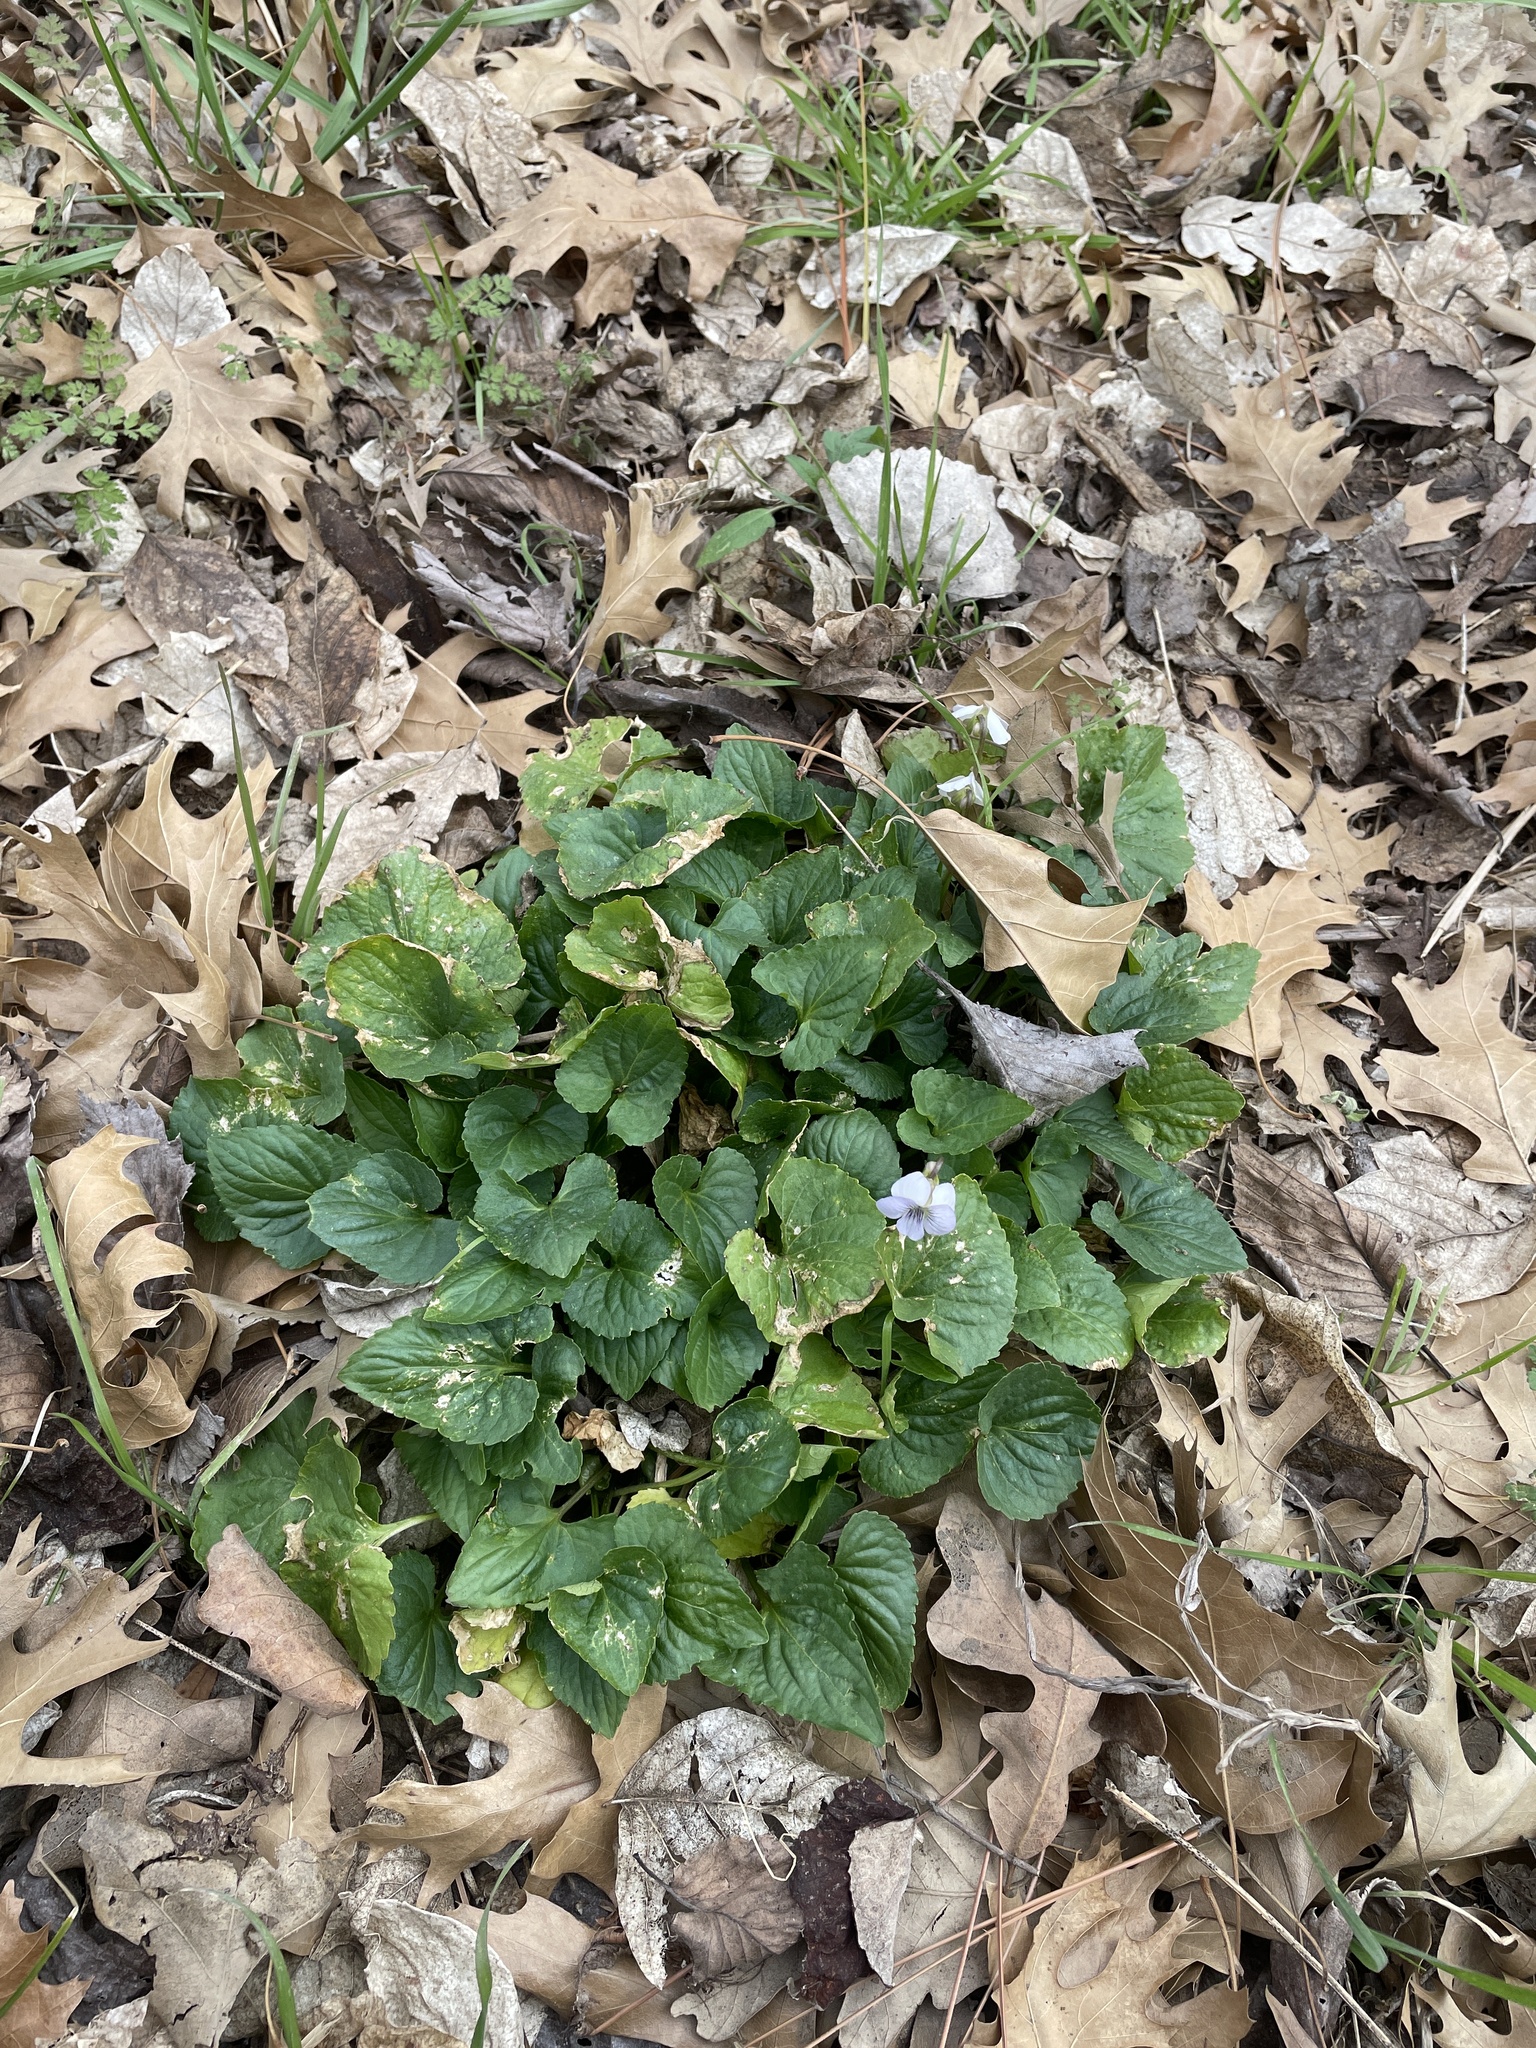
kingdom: Plantae
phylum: Tracheophyta
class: Magnoliopsida
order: Malpighiales
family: Violaceae
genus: Viola
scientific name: Viola missouriensis
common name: Missouri violet
